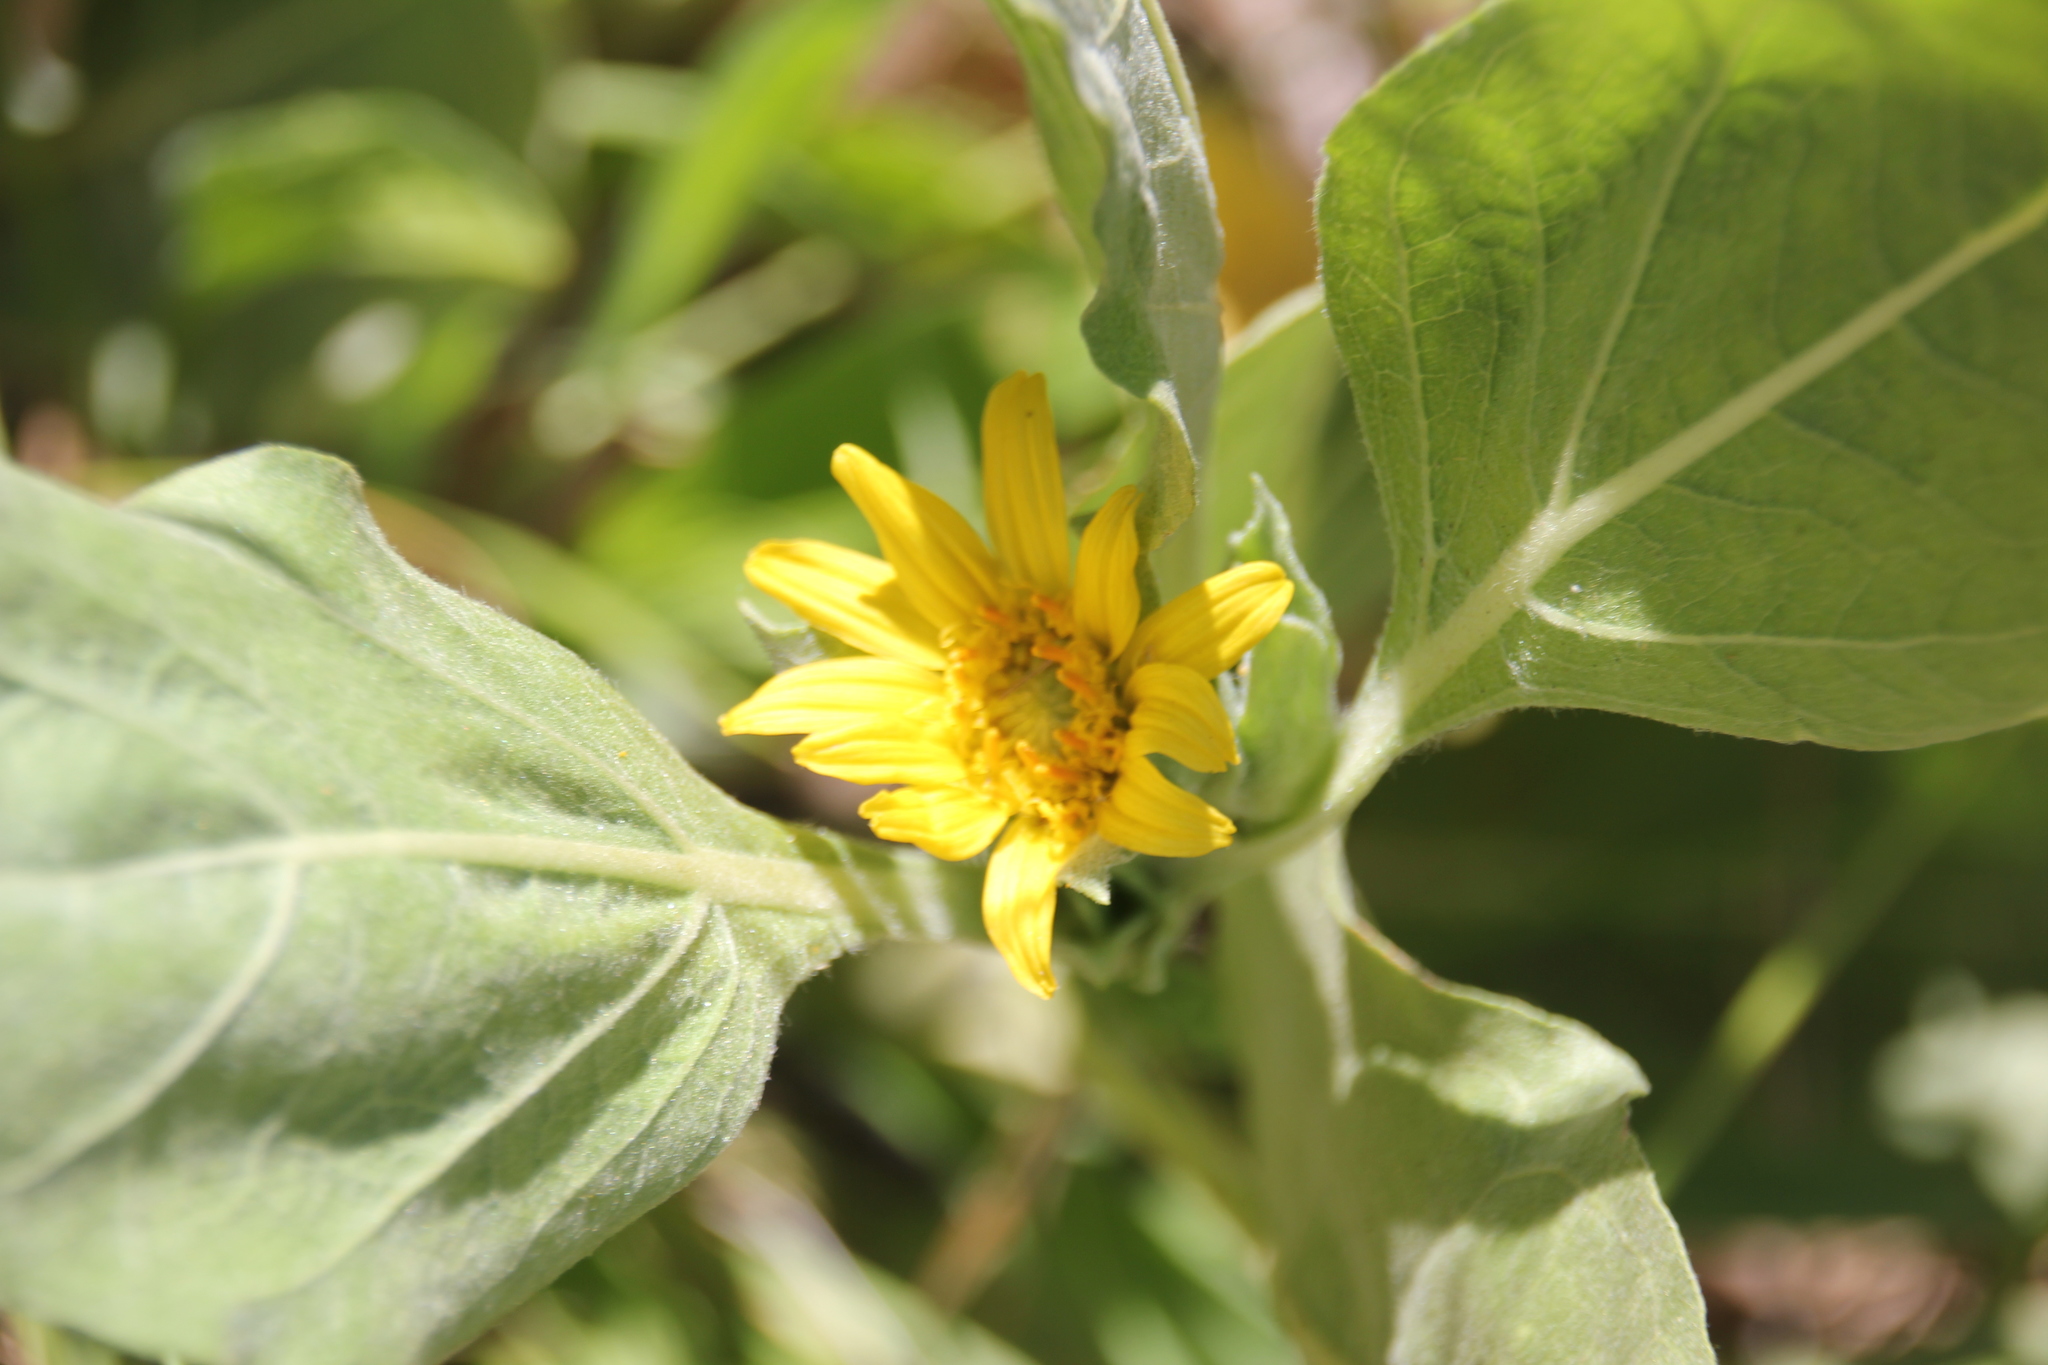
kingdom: Plantae
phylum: Tracheophyta
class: Magnoliopsida
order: Asterales
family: Asteraceae
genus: Agnorhiza
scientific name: Agnorhiza ovata
